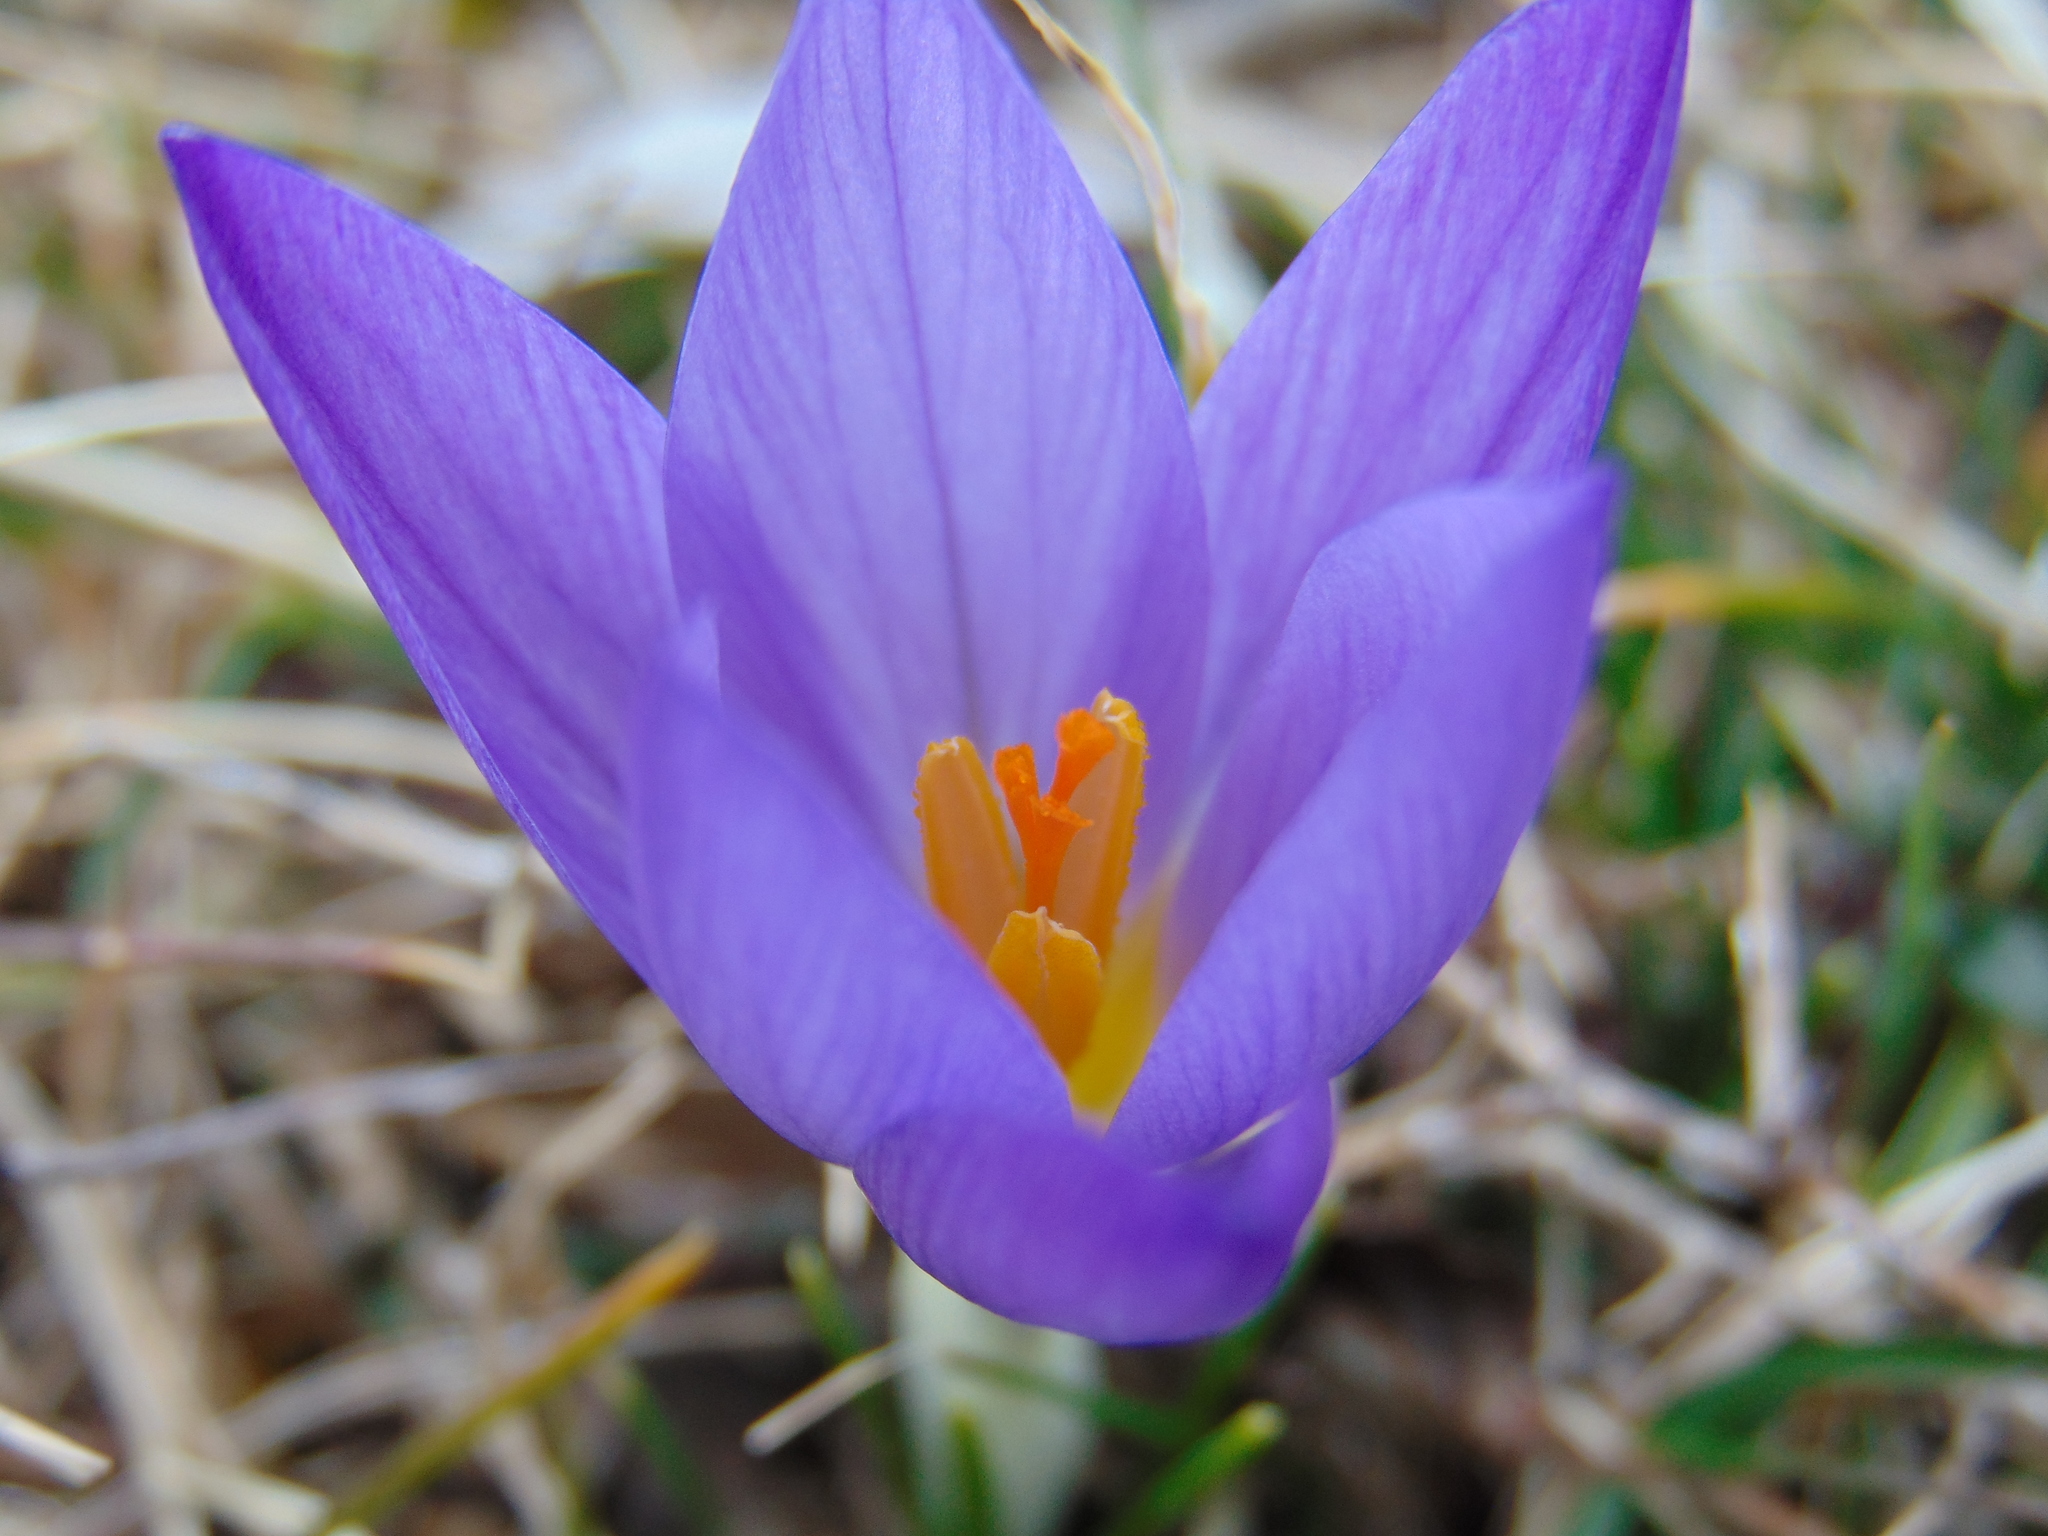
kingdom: Plantae
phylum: Tracheophyta
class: Liliopsida
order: Asparagales
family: Iridaceae
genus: Crocus
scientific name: Crocus dalmaticus
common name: Dalmatian saffron
